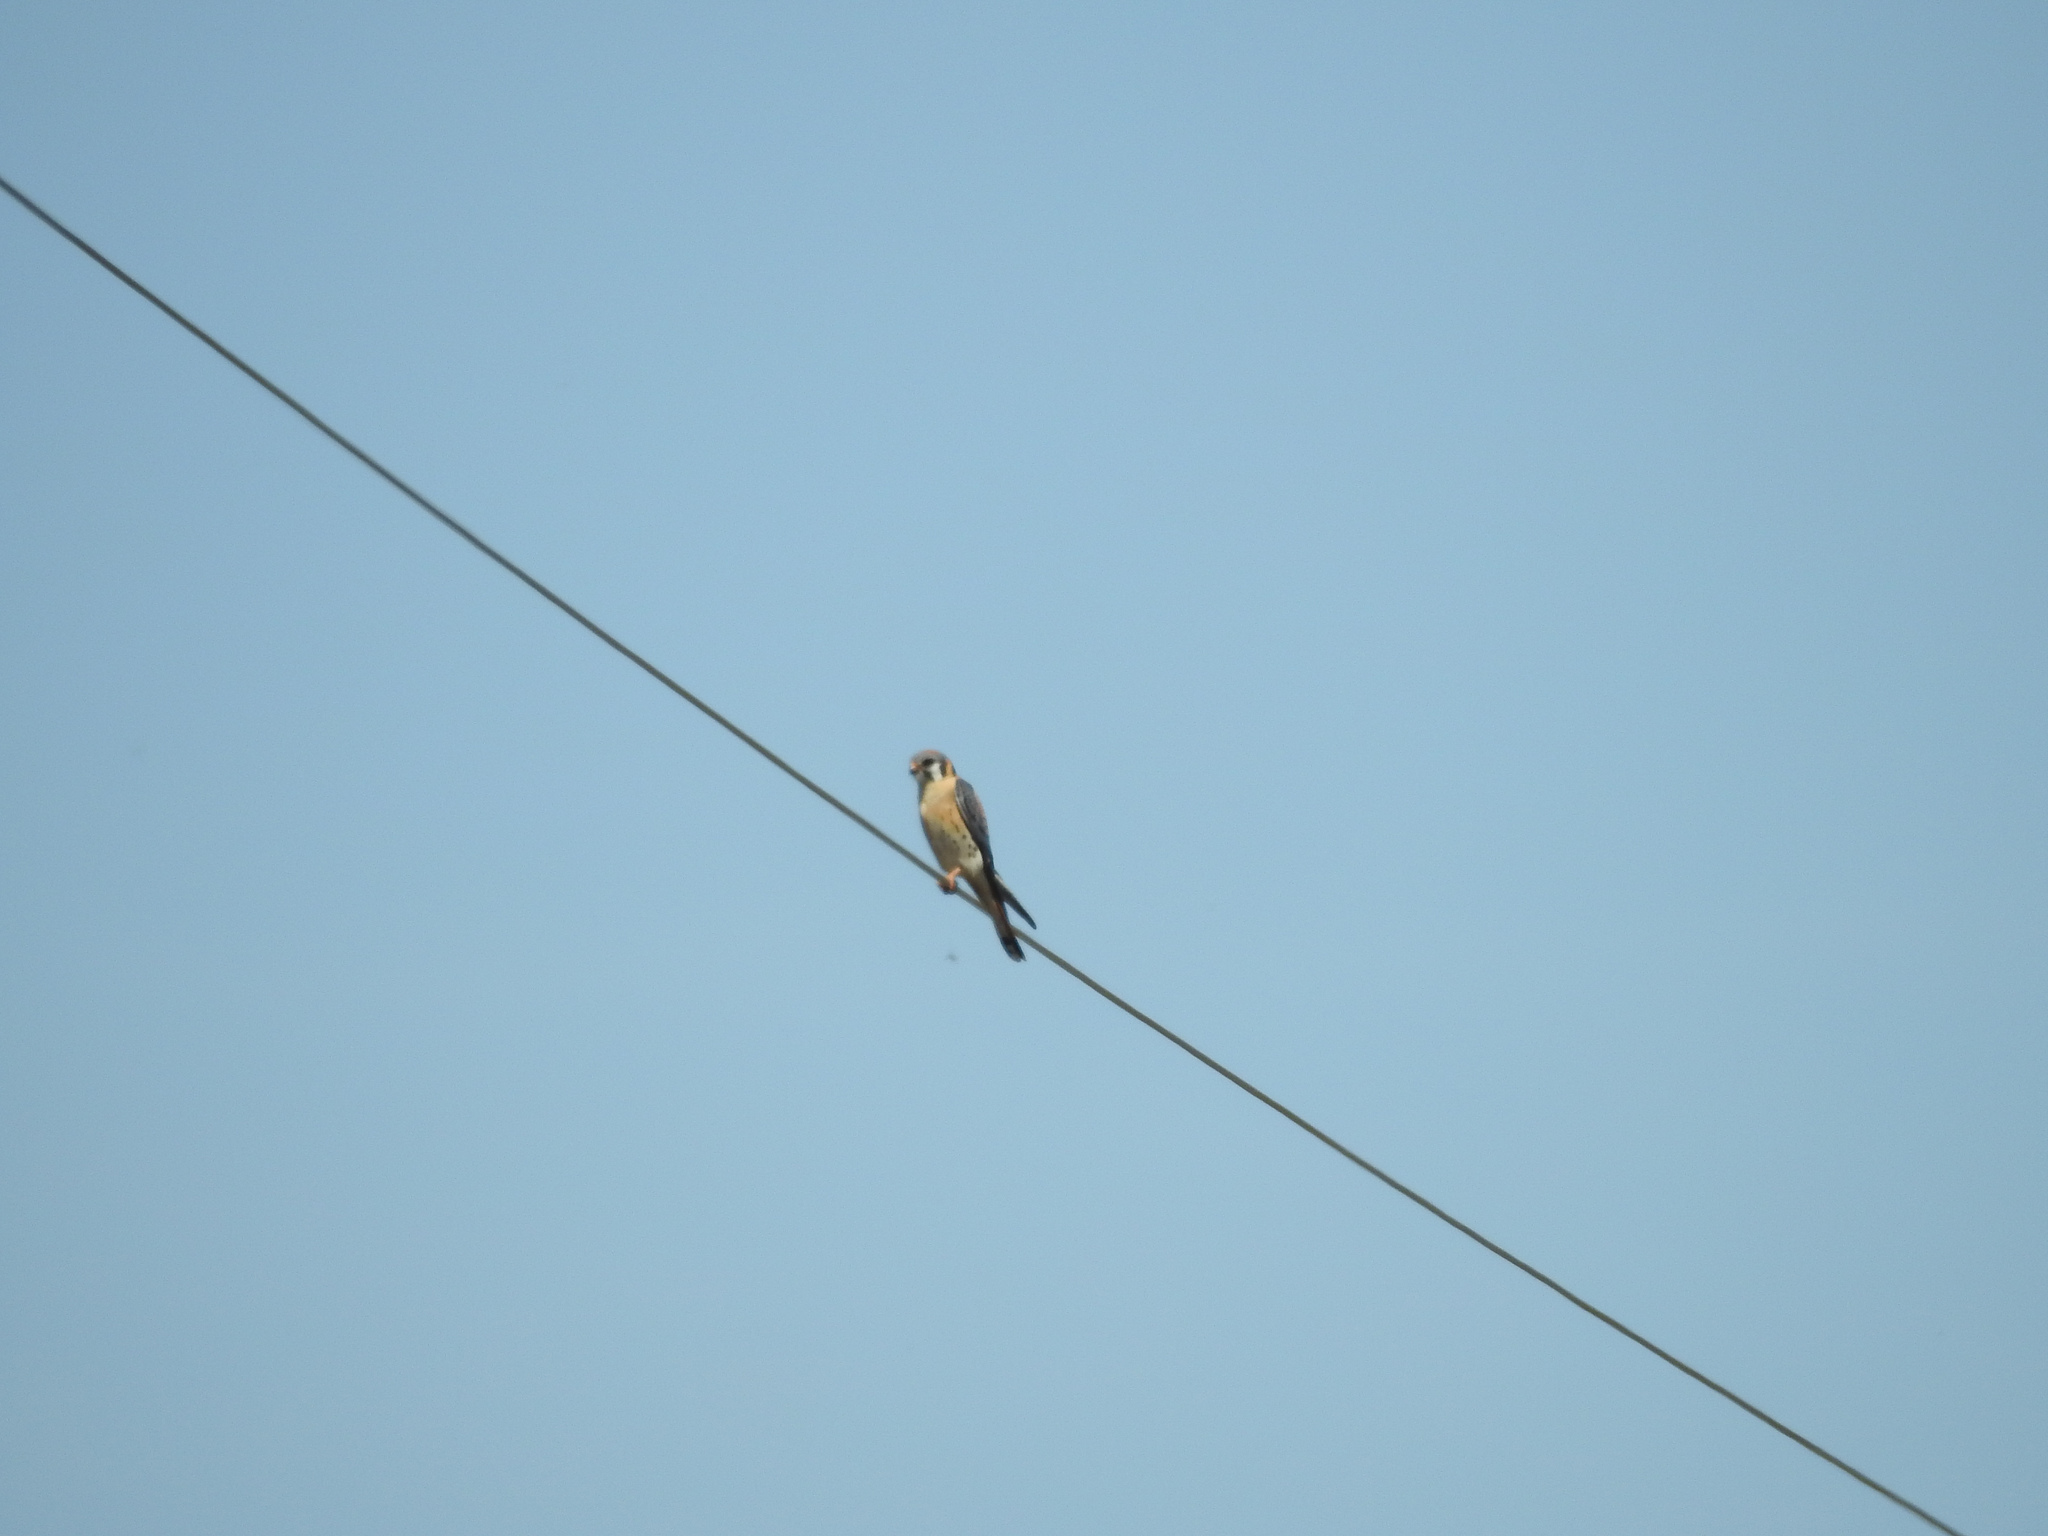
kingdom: Animalia
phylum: Chordata
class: Aves
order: Falconiformes
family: Falconidae
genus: Falco
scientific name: Falco sparverius
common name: American kestrel
